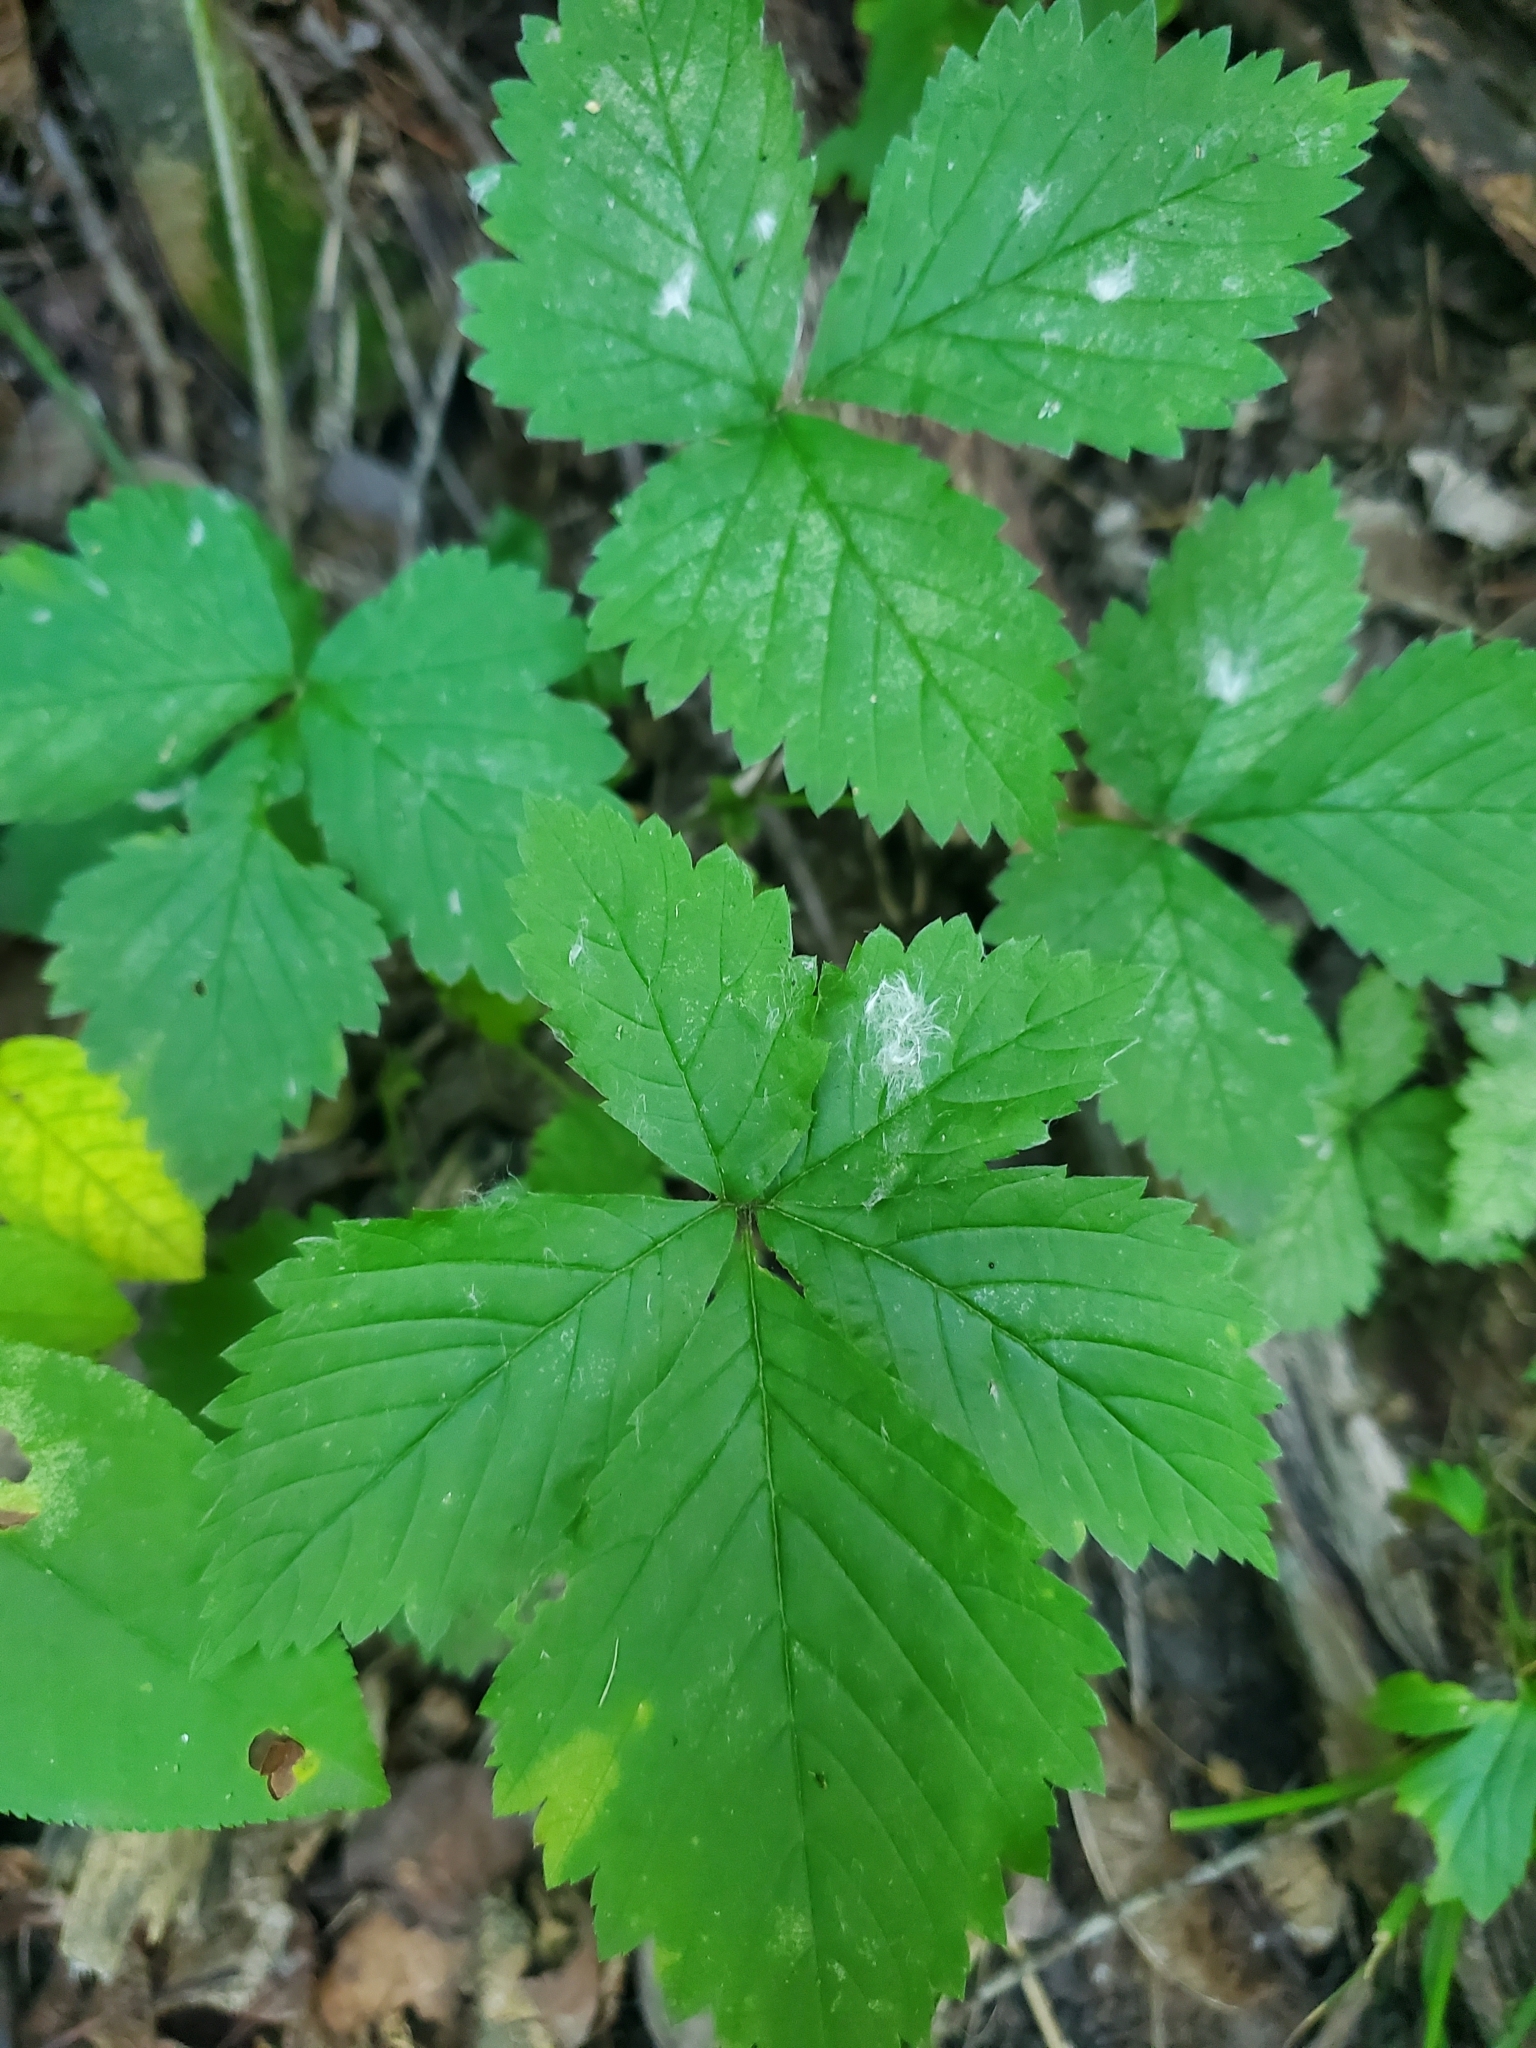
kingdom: Plantae
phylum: Tracheophyta
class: Magnoliopsida
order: Rosales
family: Rosaceae
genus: Rubus
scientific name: Rubus pubescens
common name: Dwarf raspberry
